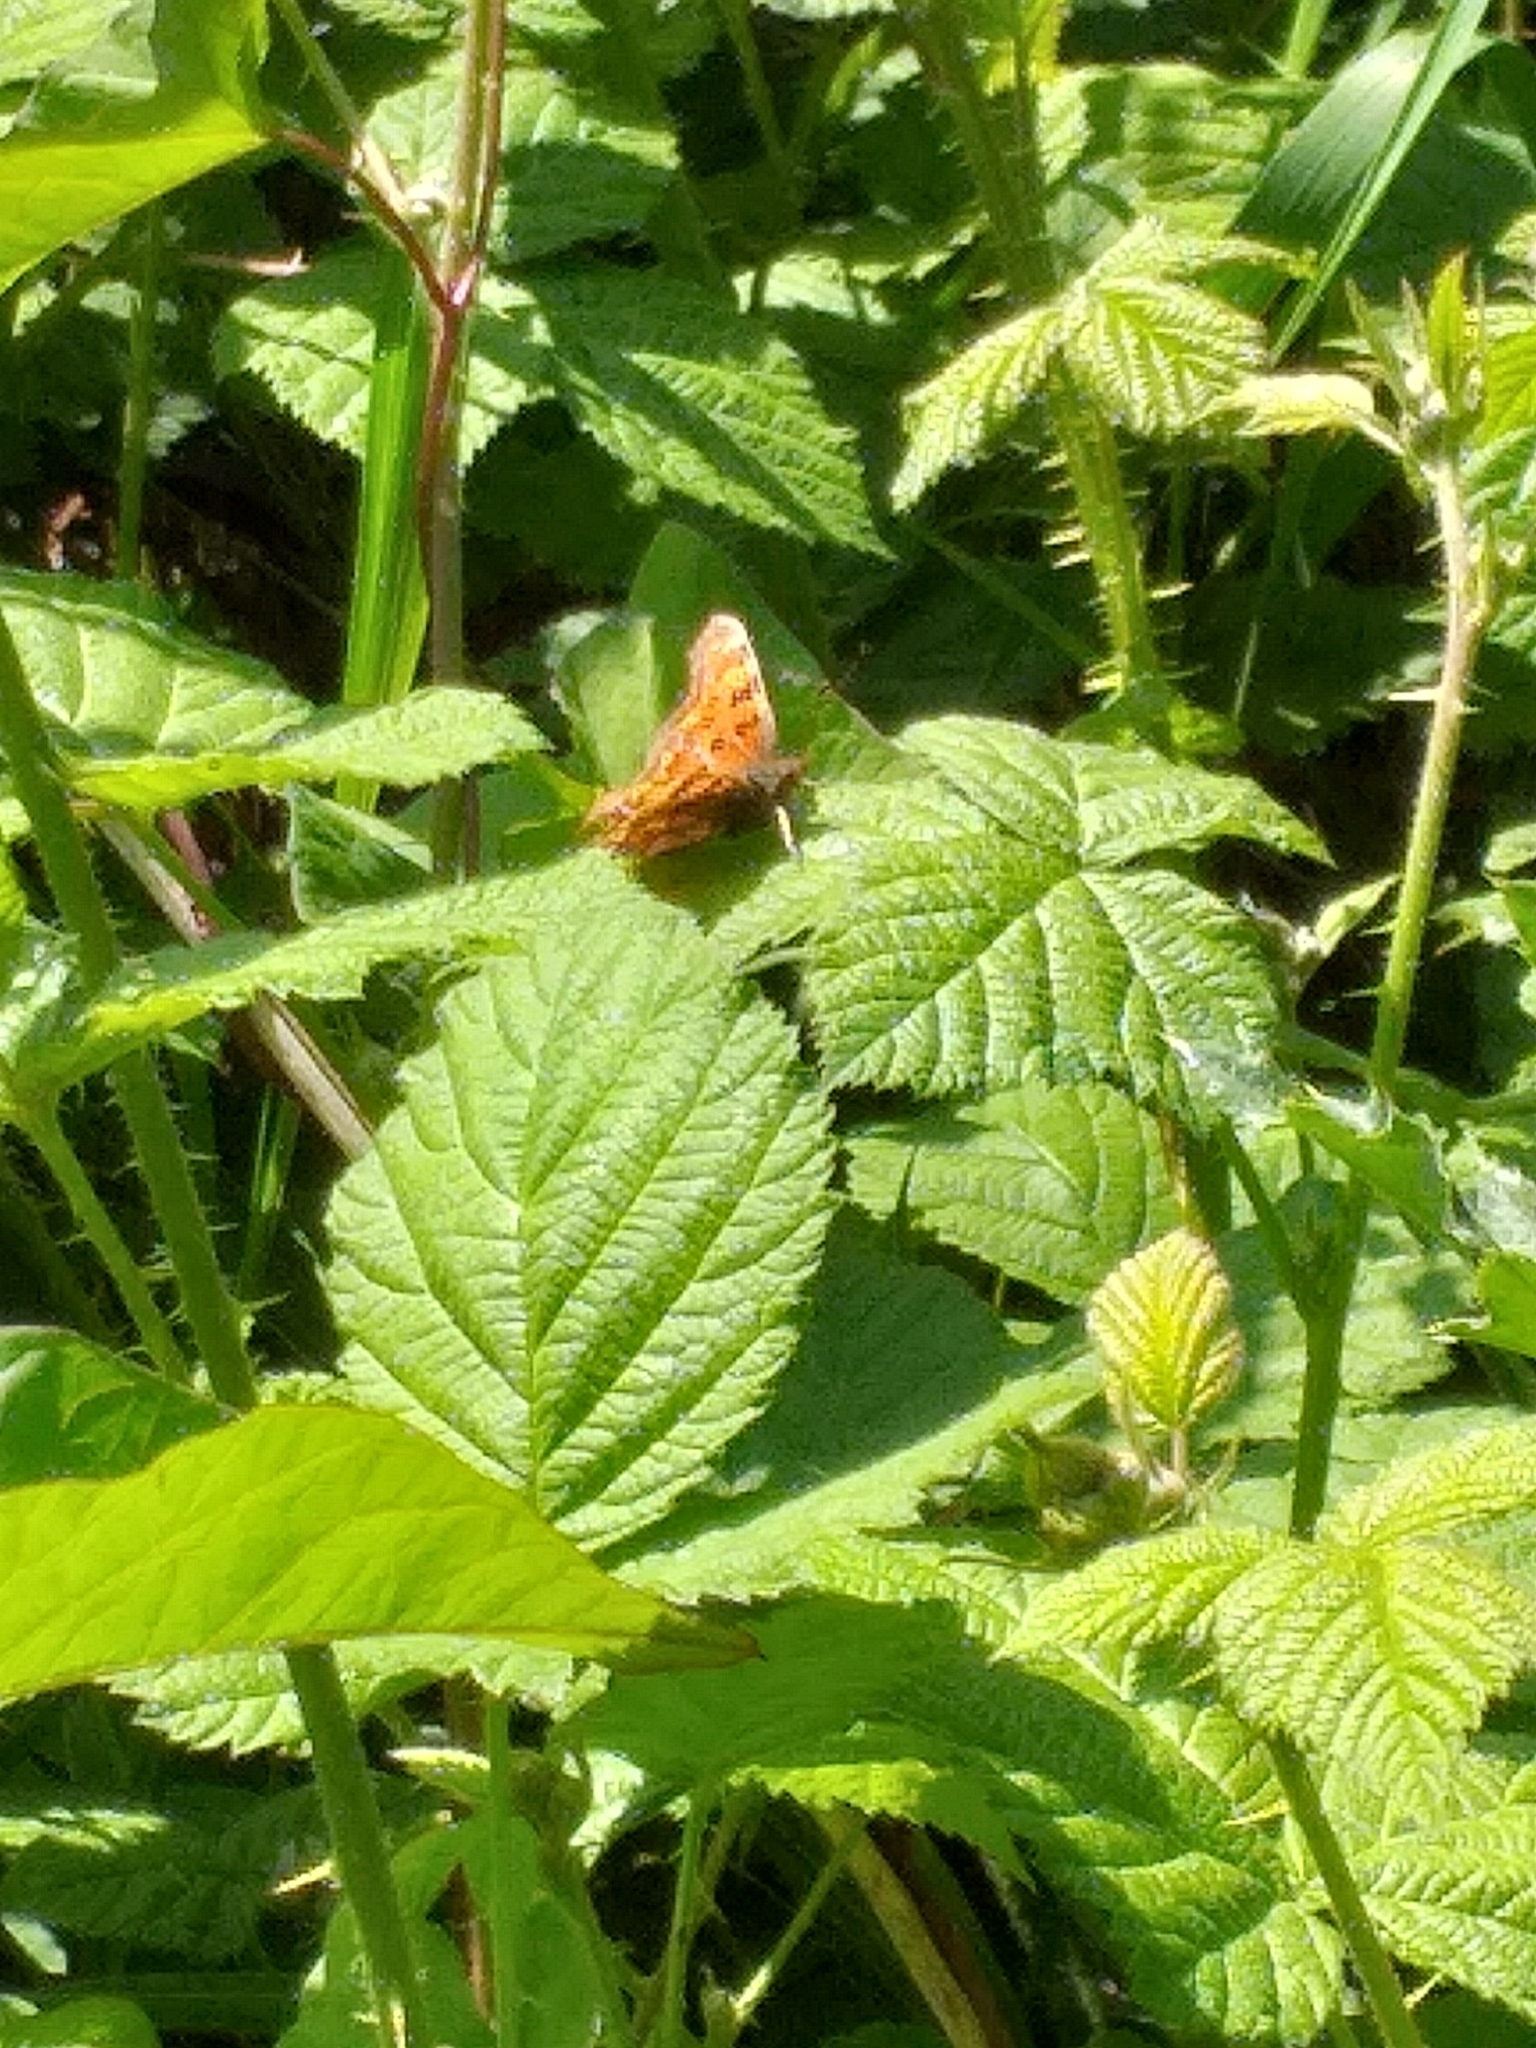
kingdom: Animalia
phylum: Arthropoda
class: Insecta
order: Lepidoptera
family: Nymphalidae
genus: Polygonia
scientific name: Polygonia c-album
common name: Comma
